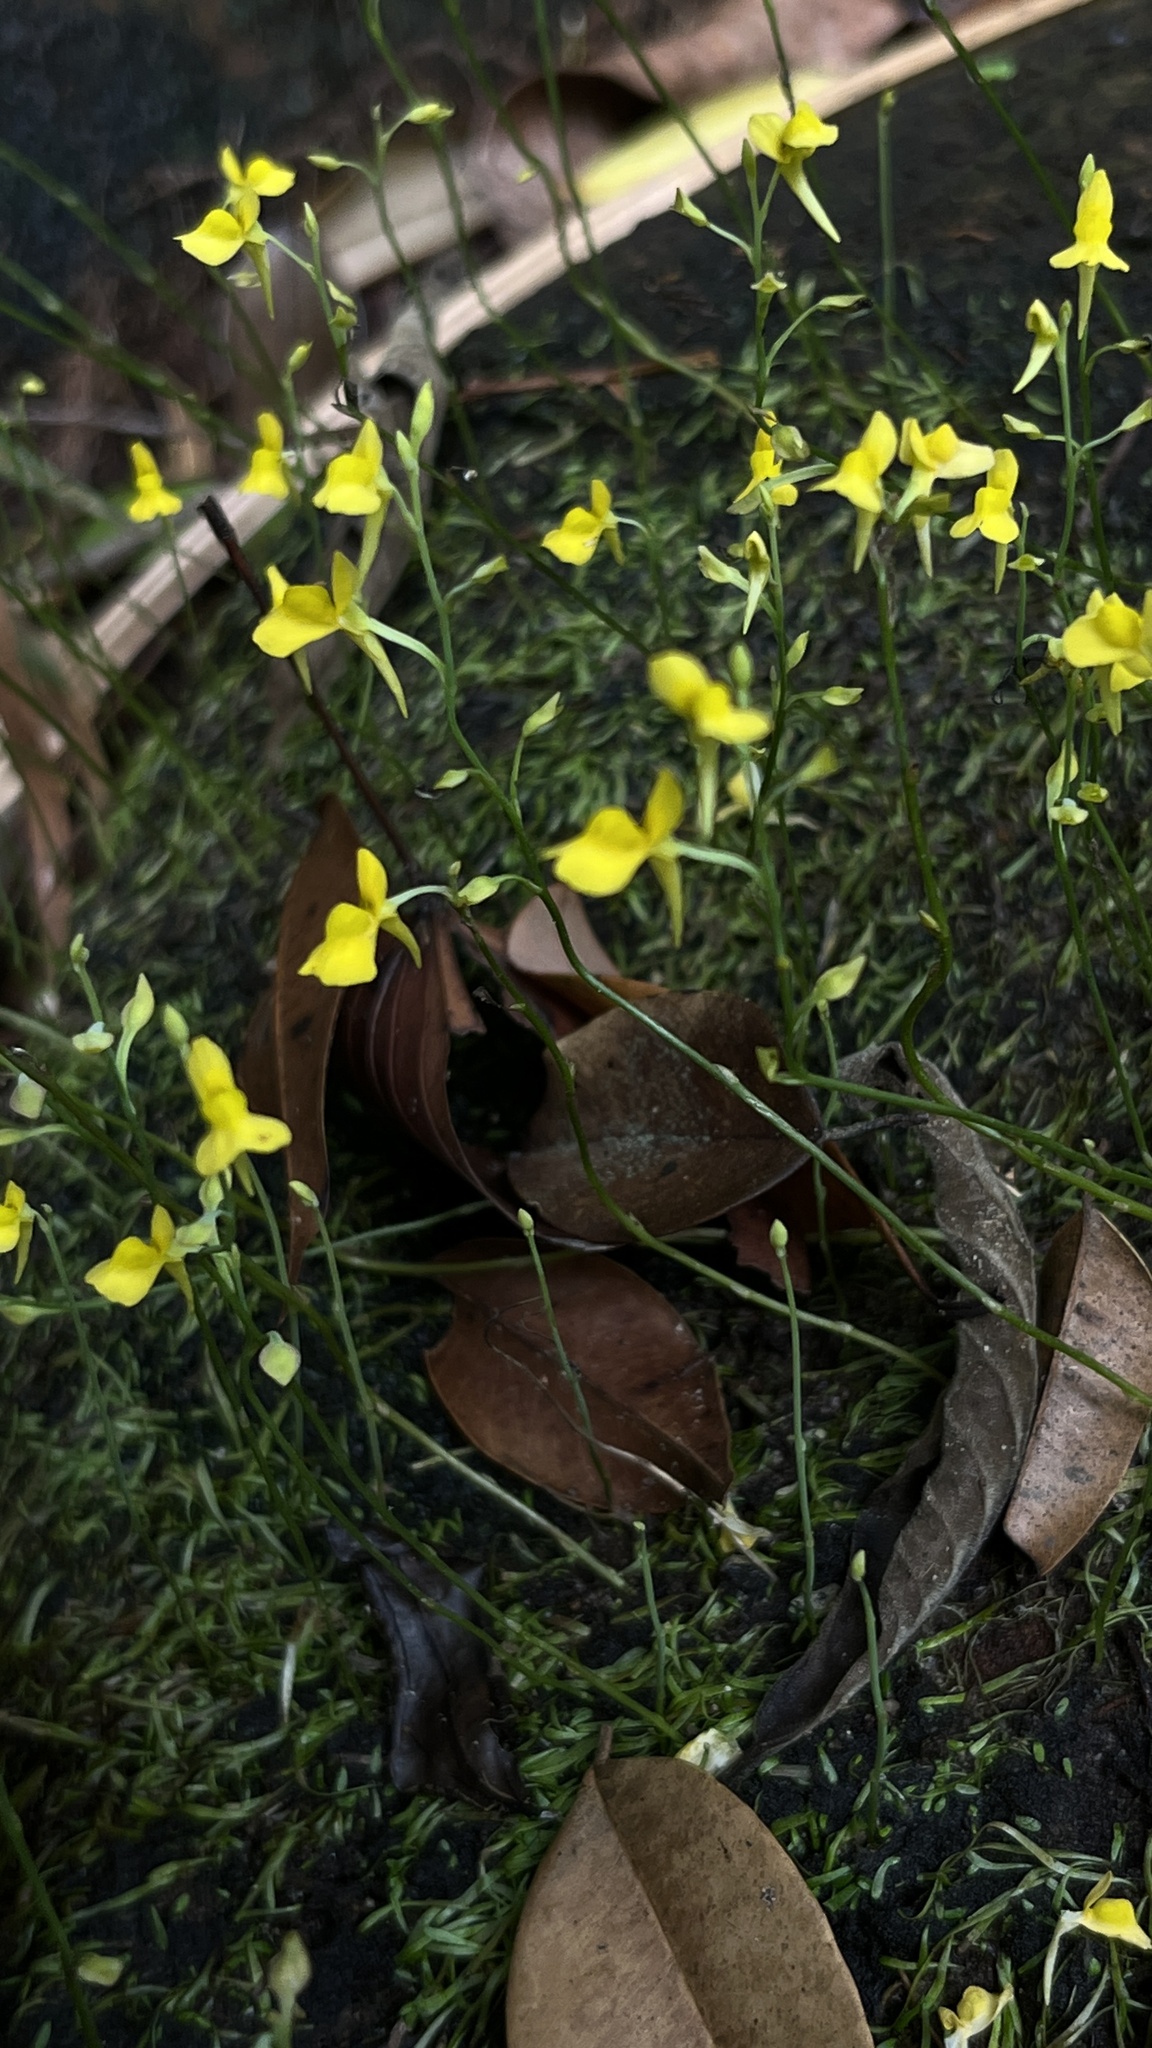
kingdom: Plantae
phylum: Tracheophyta
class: Magnoliopsida
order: Lamiales
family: Lentibulariaceae
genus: Utricularia
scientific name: Utricularia bifida
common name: Bifid bladderwort
